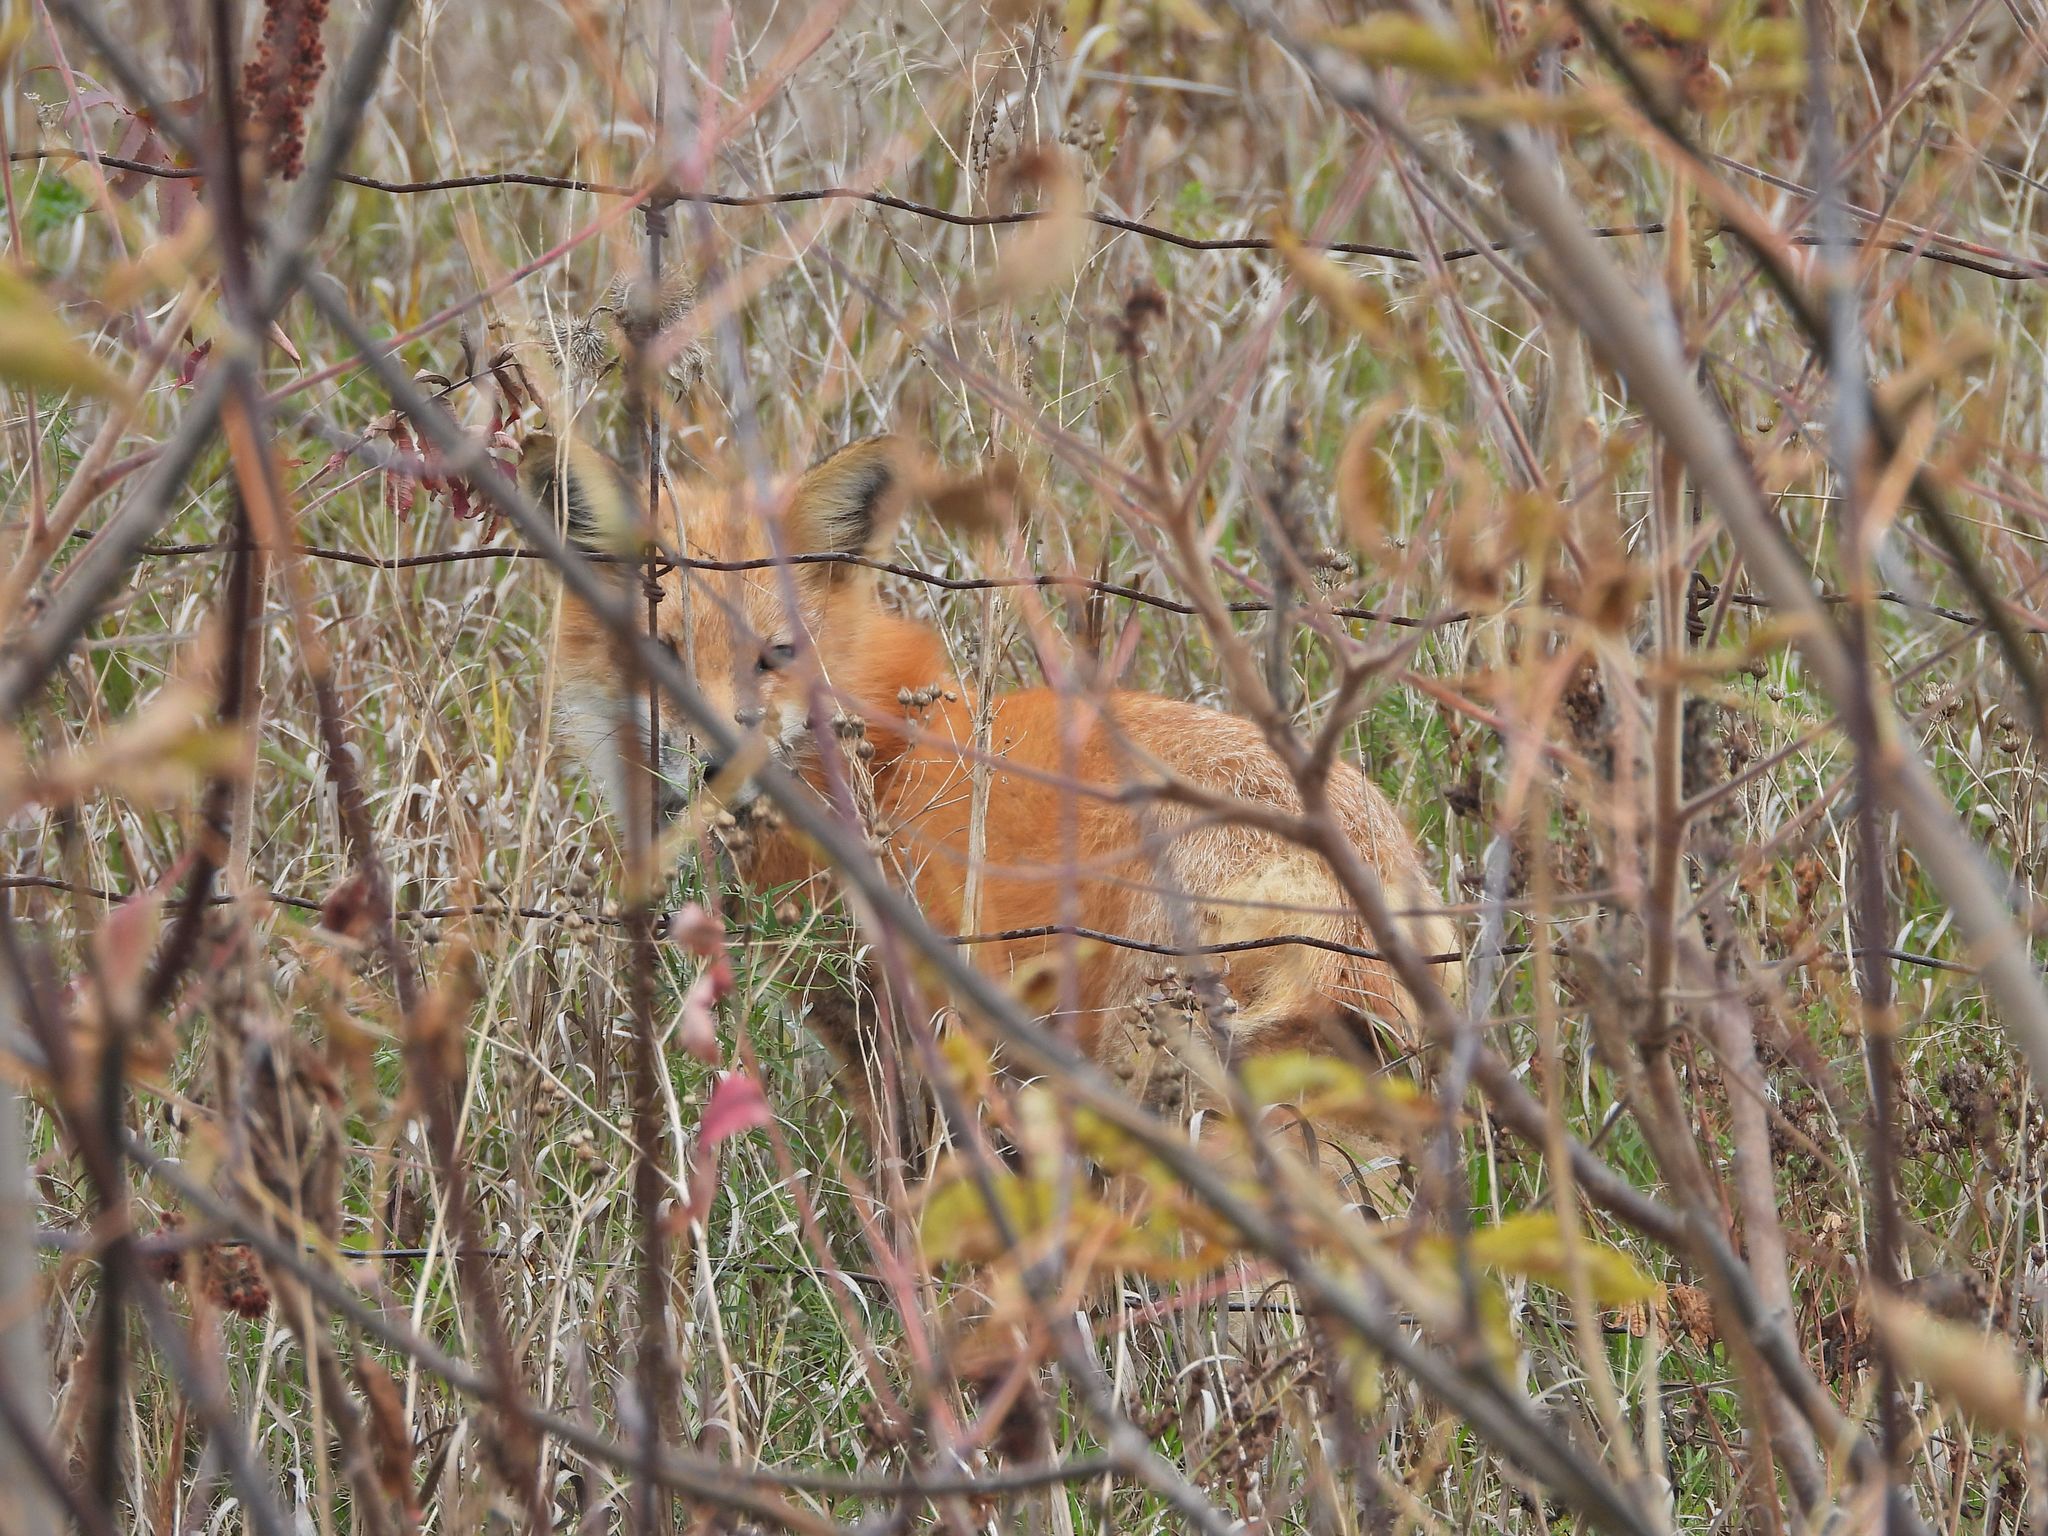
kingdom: Animalia
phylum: Chordata
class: Mammalia
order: Carnivora
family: Canidae
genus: Vulpes
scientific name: Vulpes vulpes
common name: Red fox
